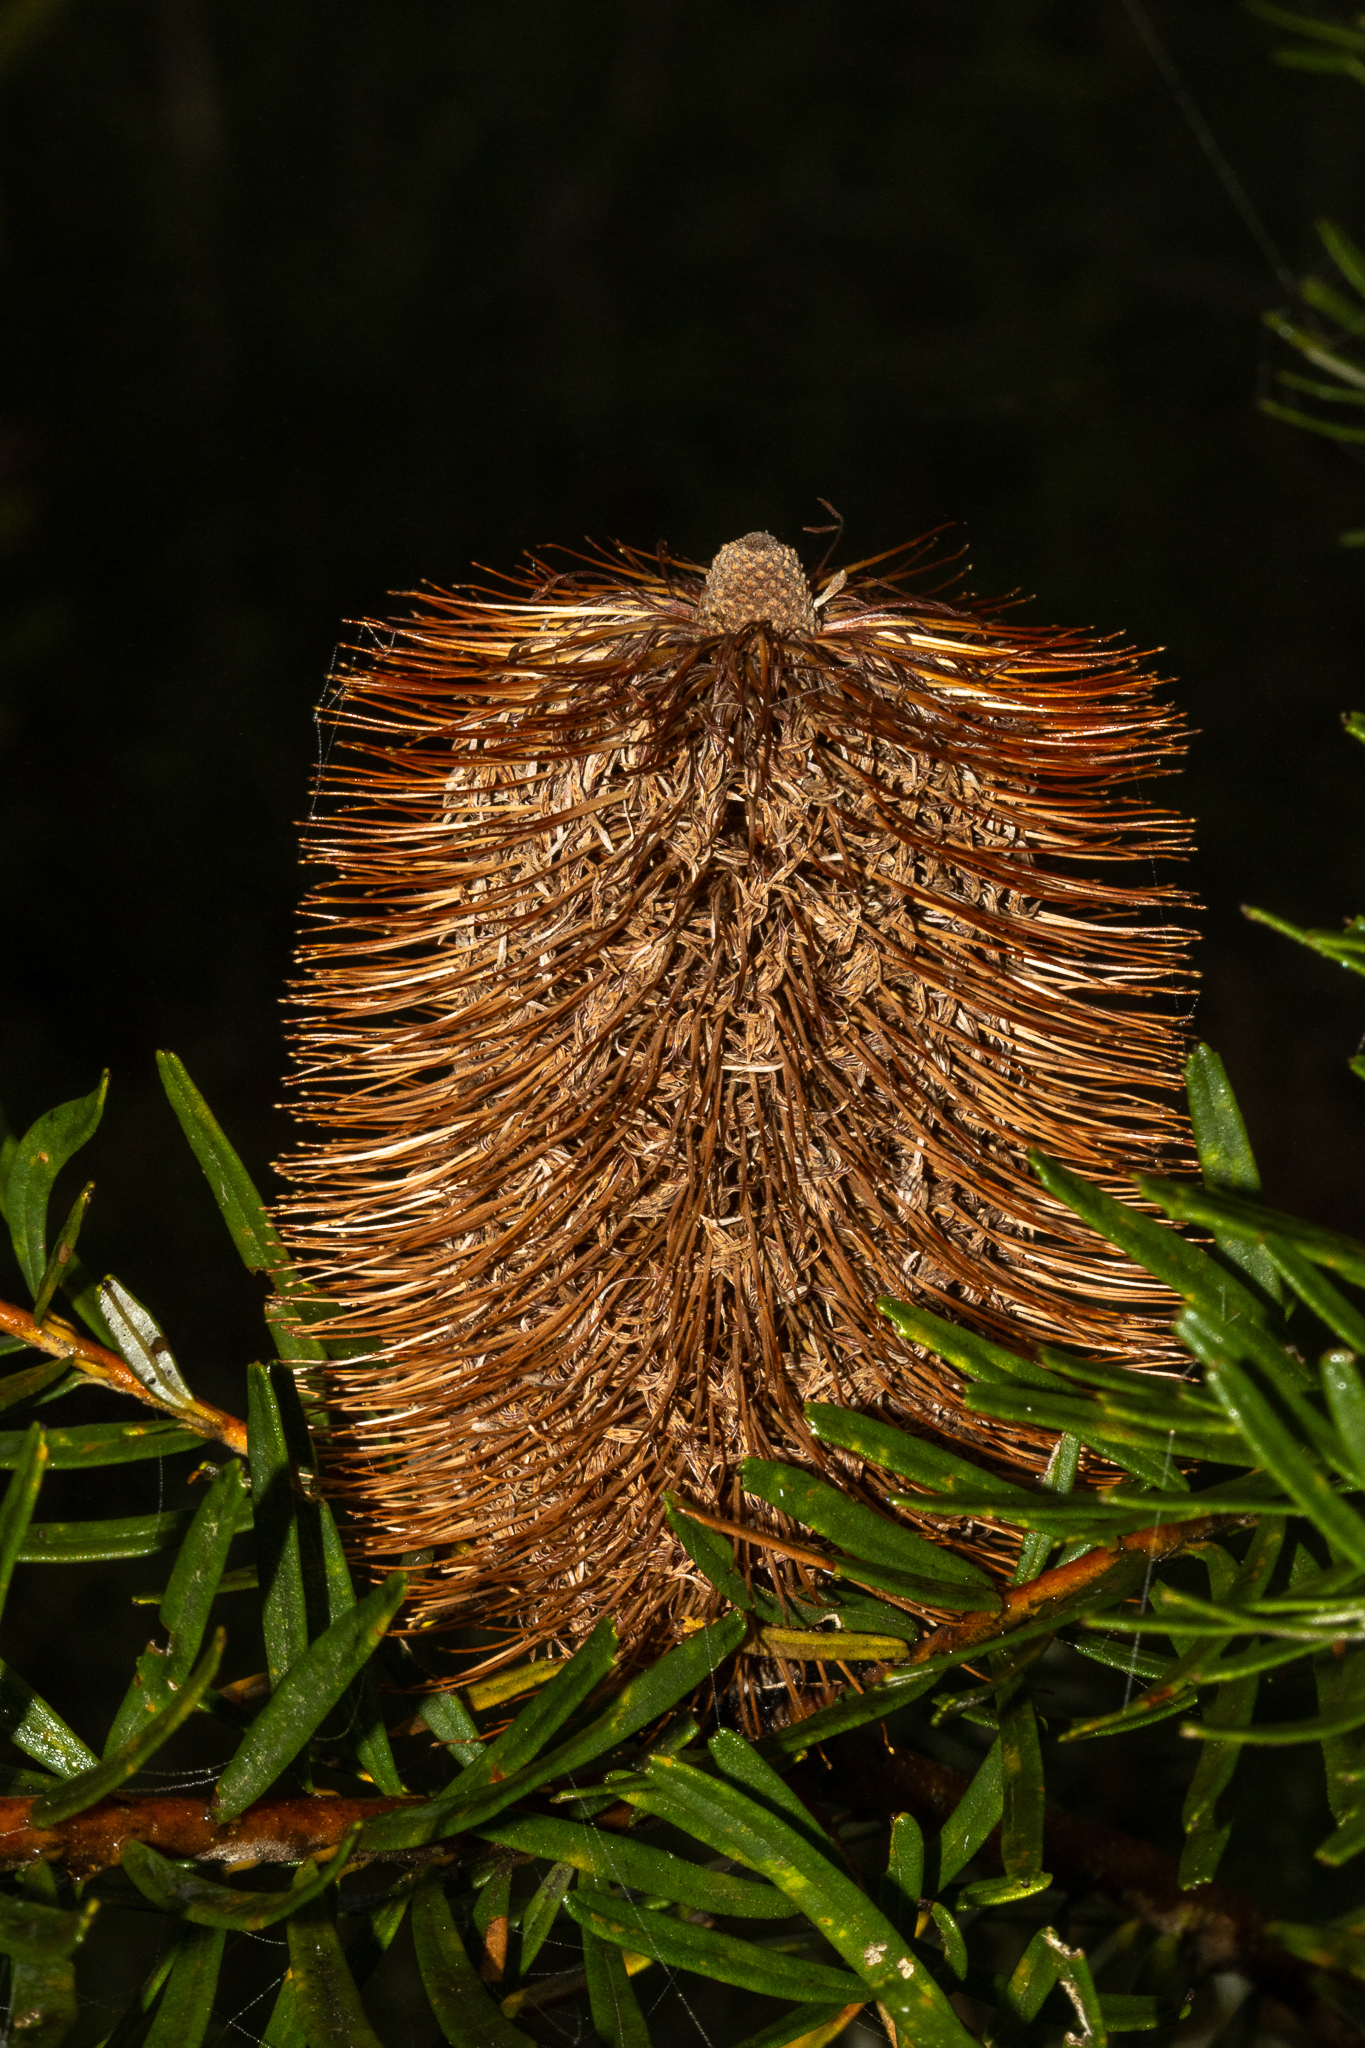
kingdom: Plantae
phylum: Tracheophyta
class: Magnoliopsida
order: Proteales
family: Proteaceae
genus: Banksia
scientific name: Banksia marginata
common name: Silver banksia
